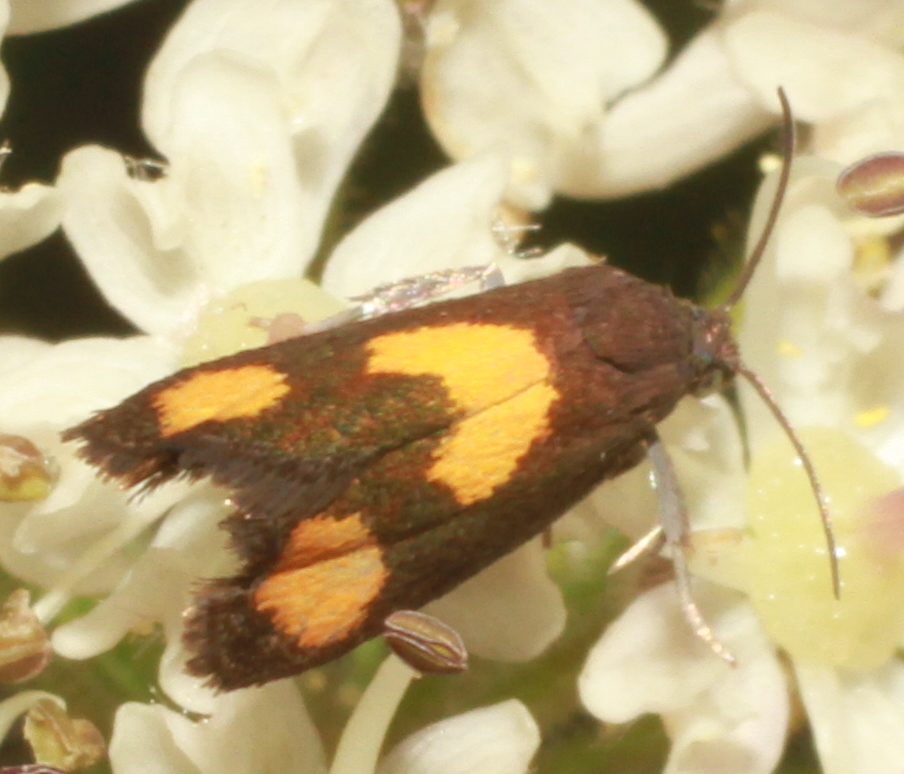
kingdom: Animalia
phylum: Arthropoda
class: Insecta
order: Lepidoptera
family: Tortricidae
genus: Pammene
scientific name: Pammene aurana
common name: Orange-spot piercer
